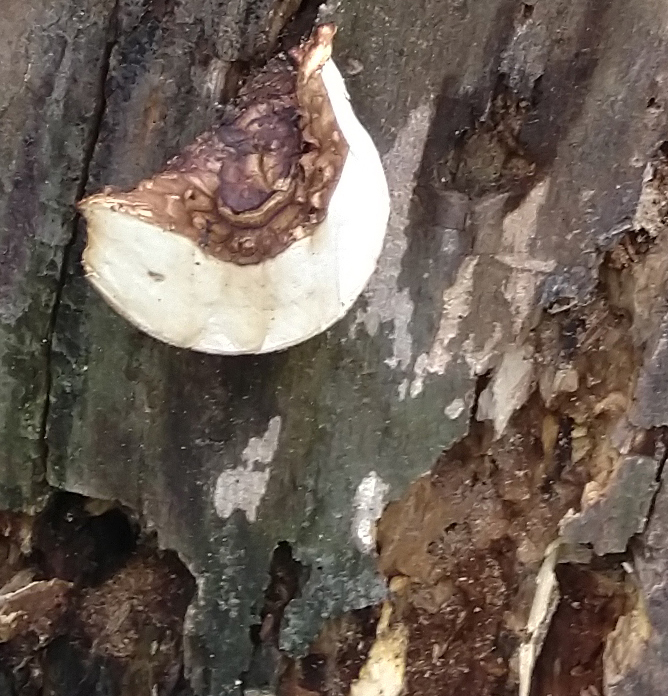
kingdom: Fungi
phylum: Basidiomycota
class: Agaricomycetes
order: Polyporales
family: Polyporaceae
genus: Cerioporus
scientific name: Cerioporus squamosus
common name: Dryad's saddle
